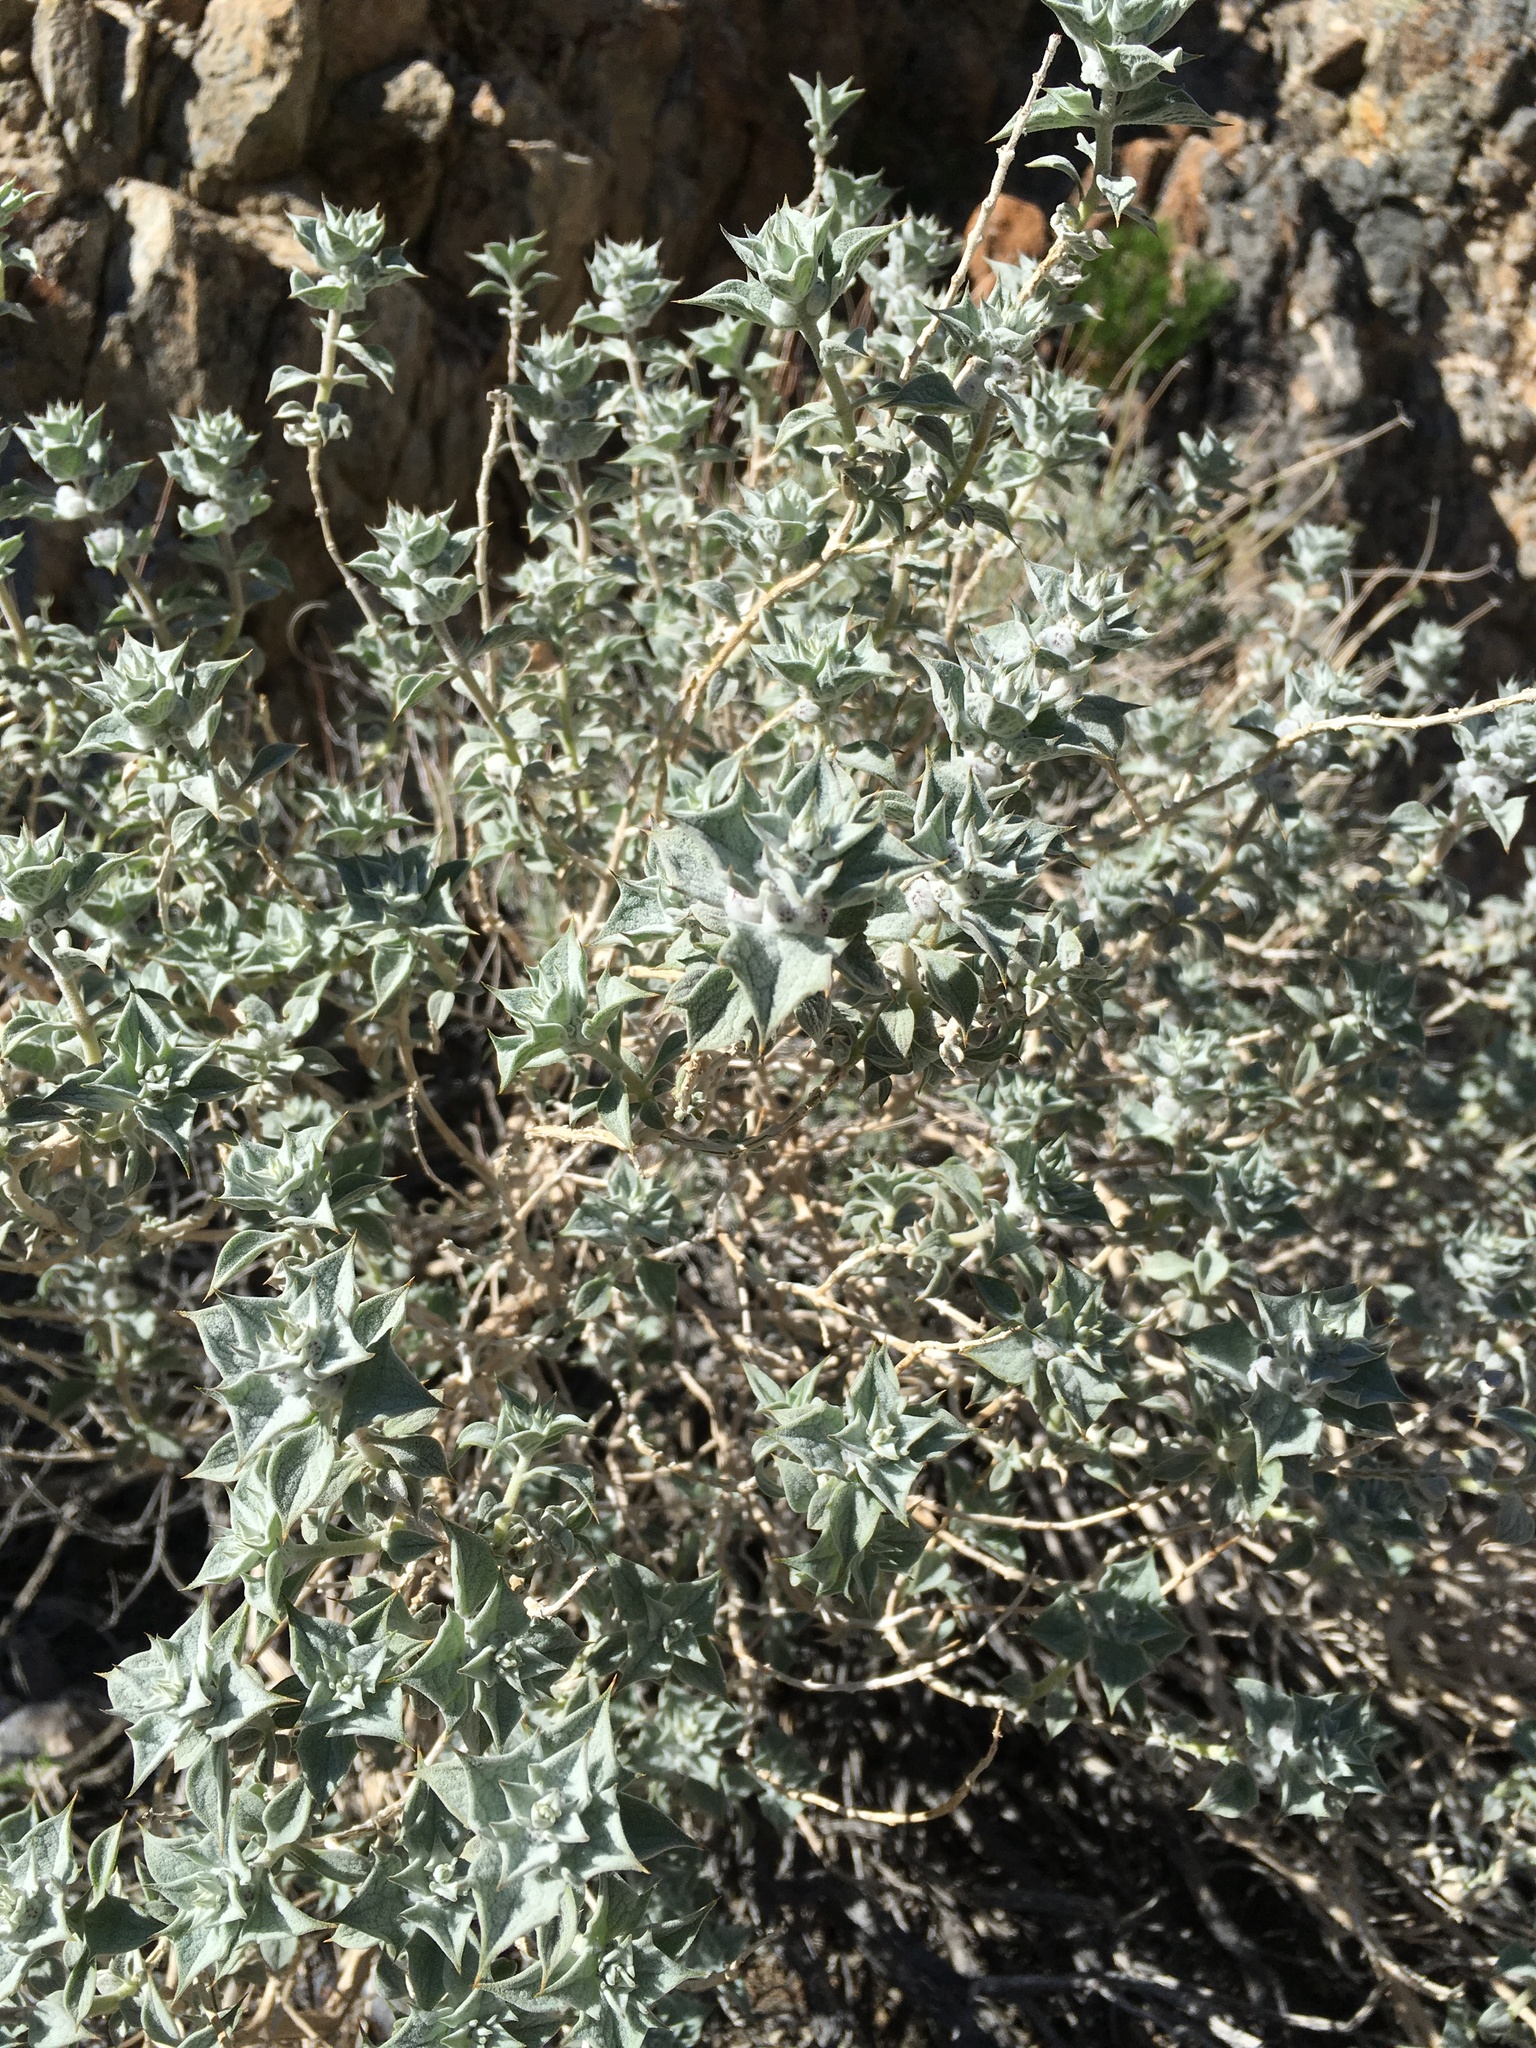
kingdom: Plantae
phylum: Tracheophyta
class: Magnoliopsida
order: Lamiales
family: Lamiaceae
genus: Salvia
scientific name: Salvia funerea
